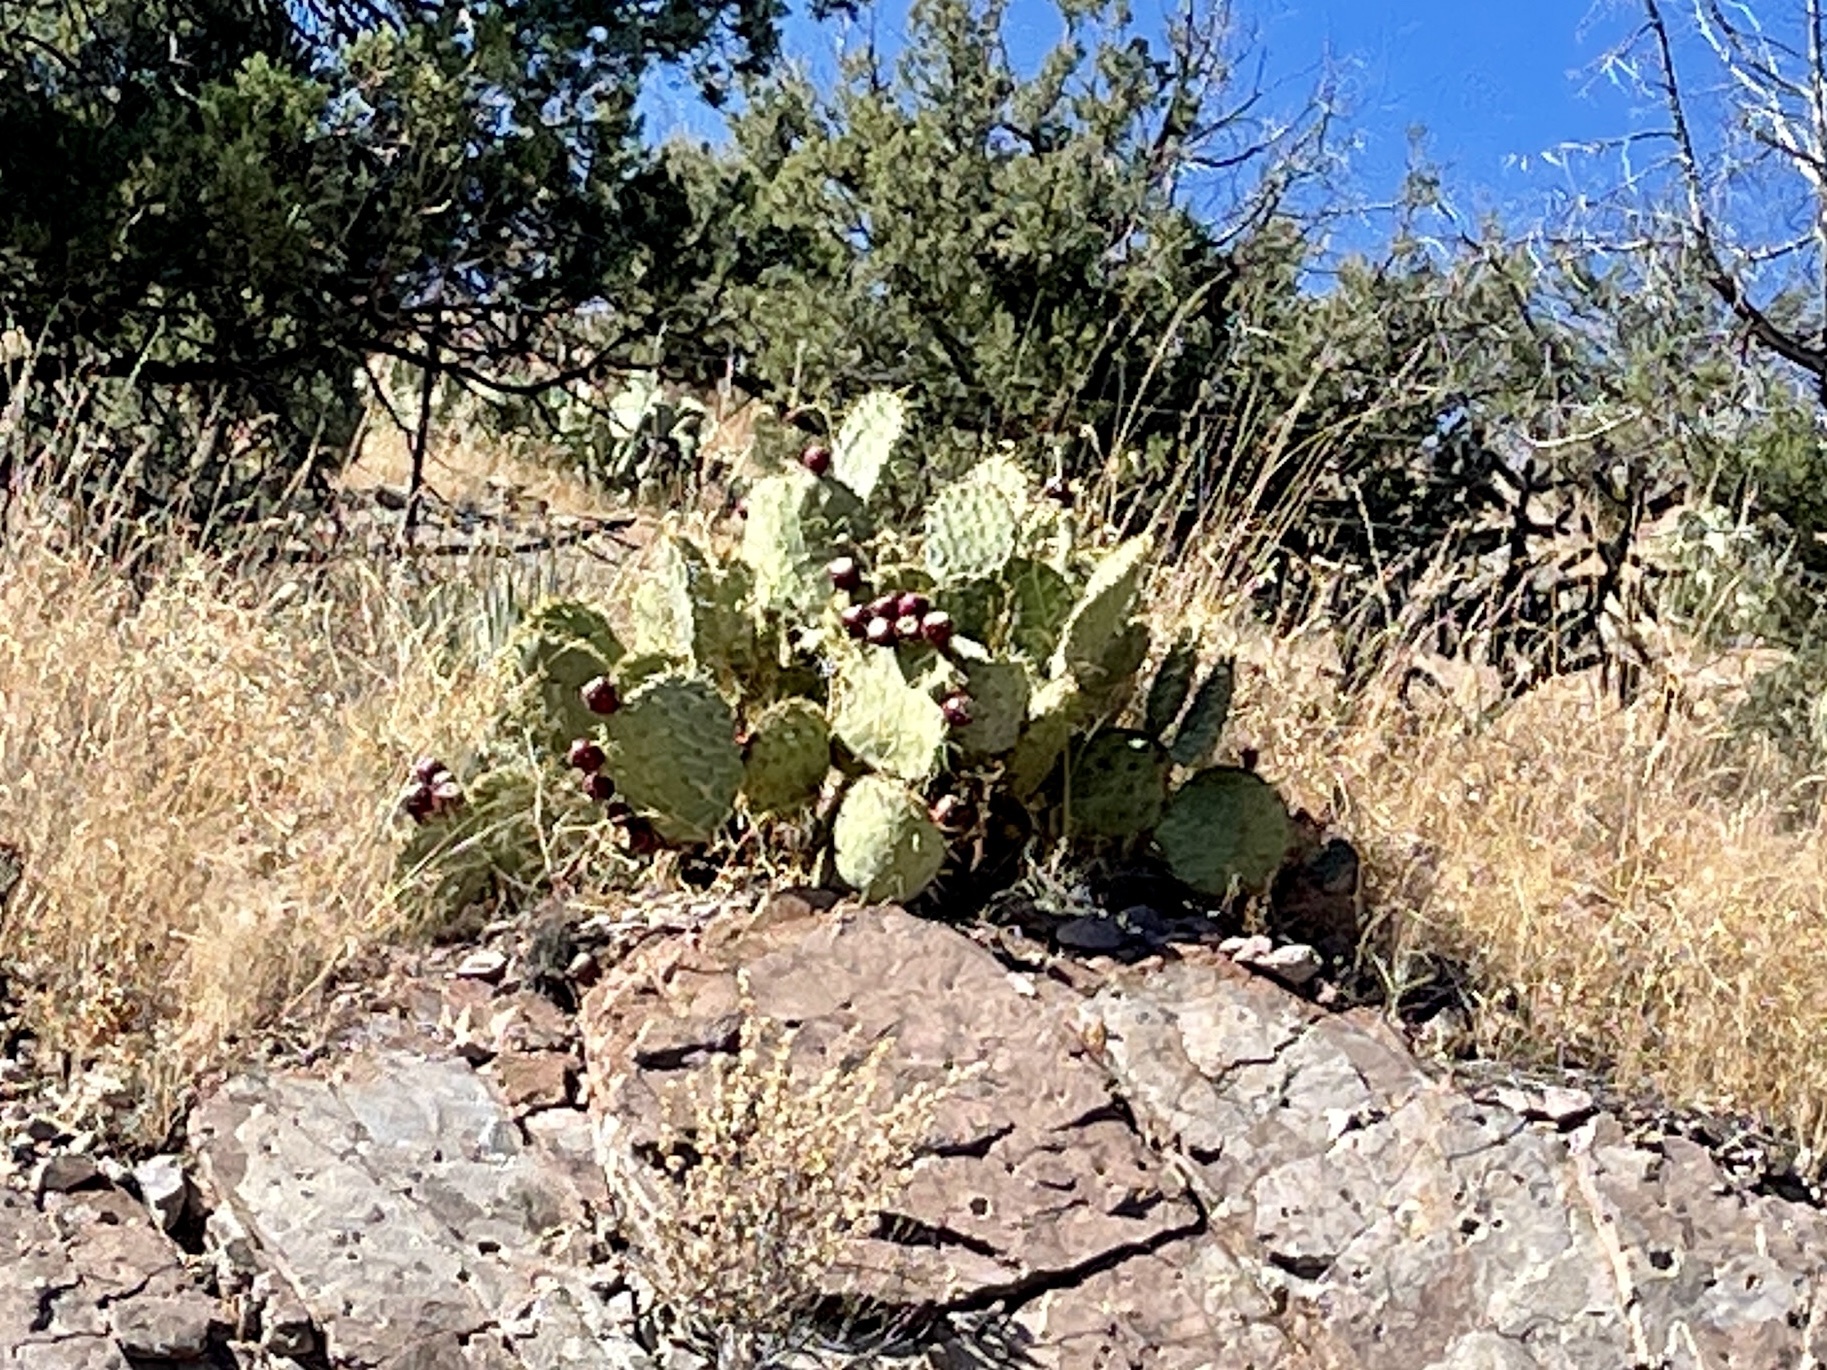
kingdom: Plantae
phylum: Tracheophyta
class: Magnoliopsida
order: Caryophyllales
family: Cactaceae
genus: Opuntia
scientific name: Opuntia engelmannii
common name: Cactus-apple
